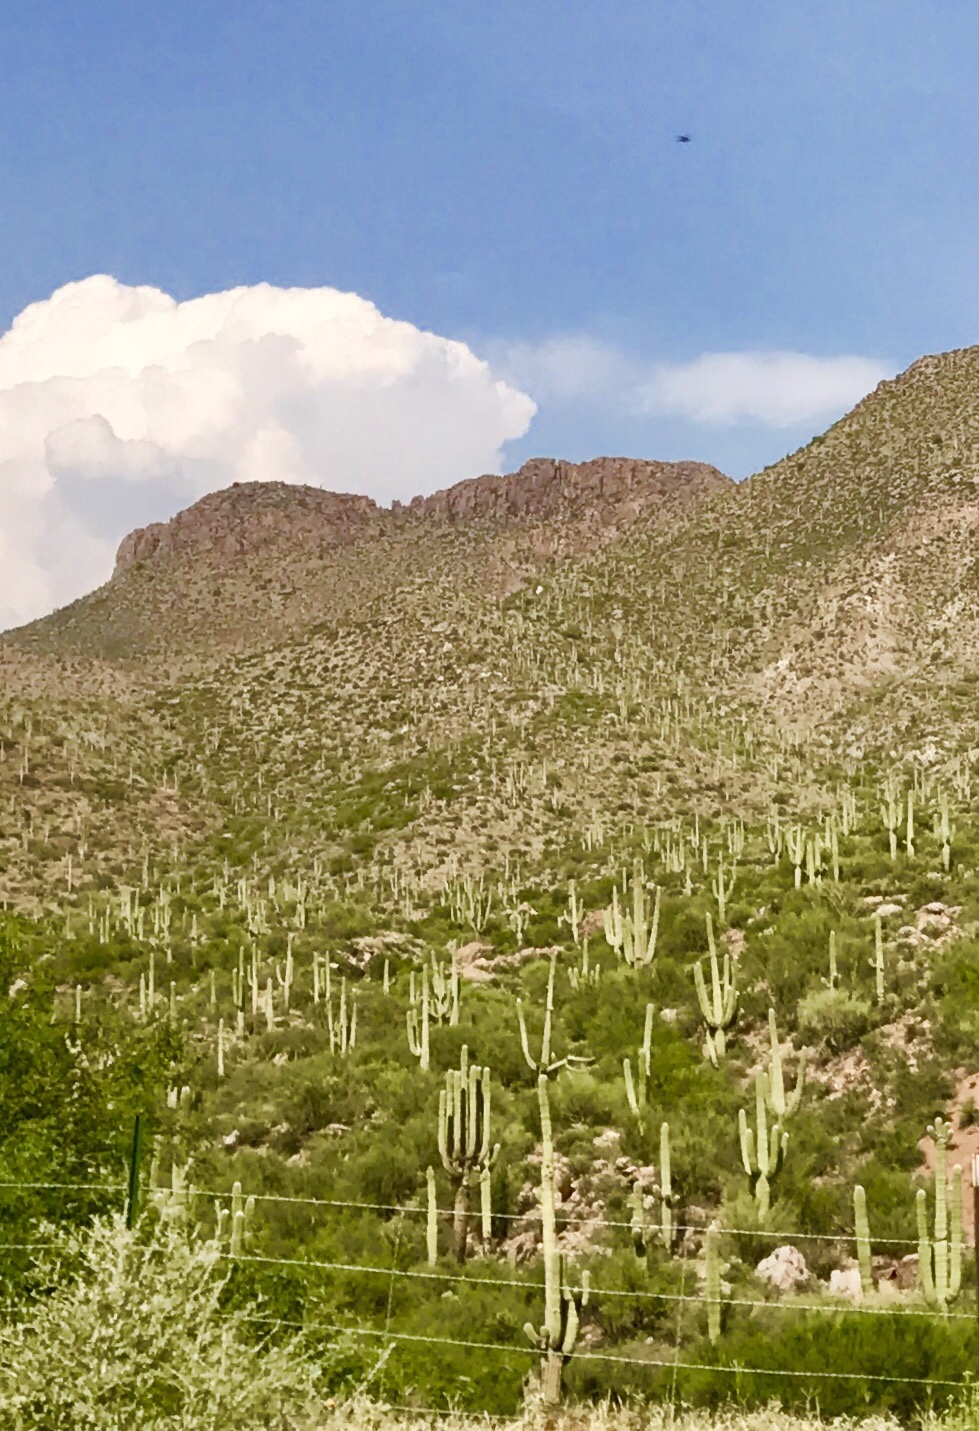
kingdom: Plantae
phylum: Tracheophyta
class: Magnoliopsida
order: Caryophyllales
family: Cactaceae
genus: Carnegiea
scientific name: Carnegiea gigantea
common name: Saguaro
